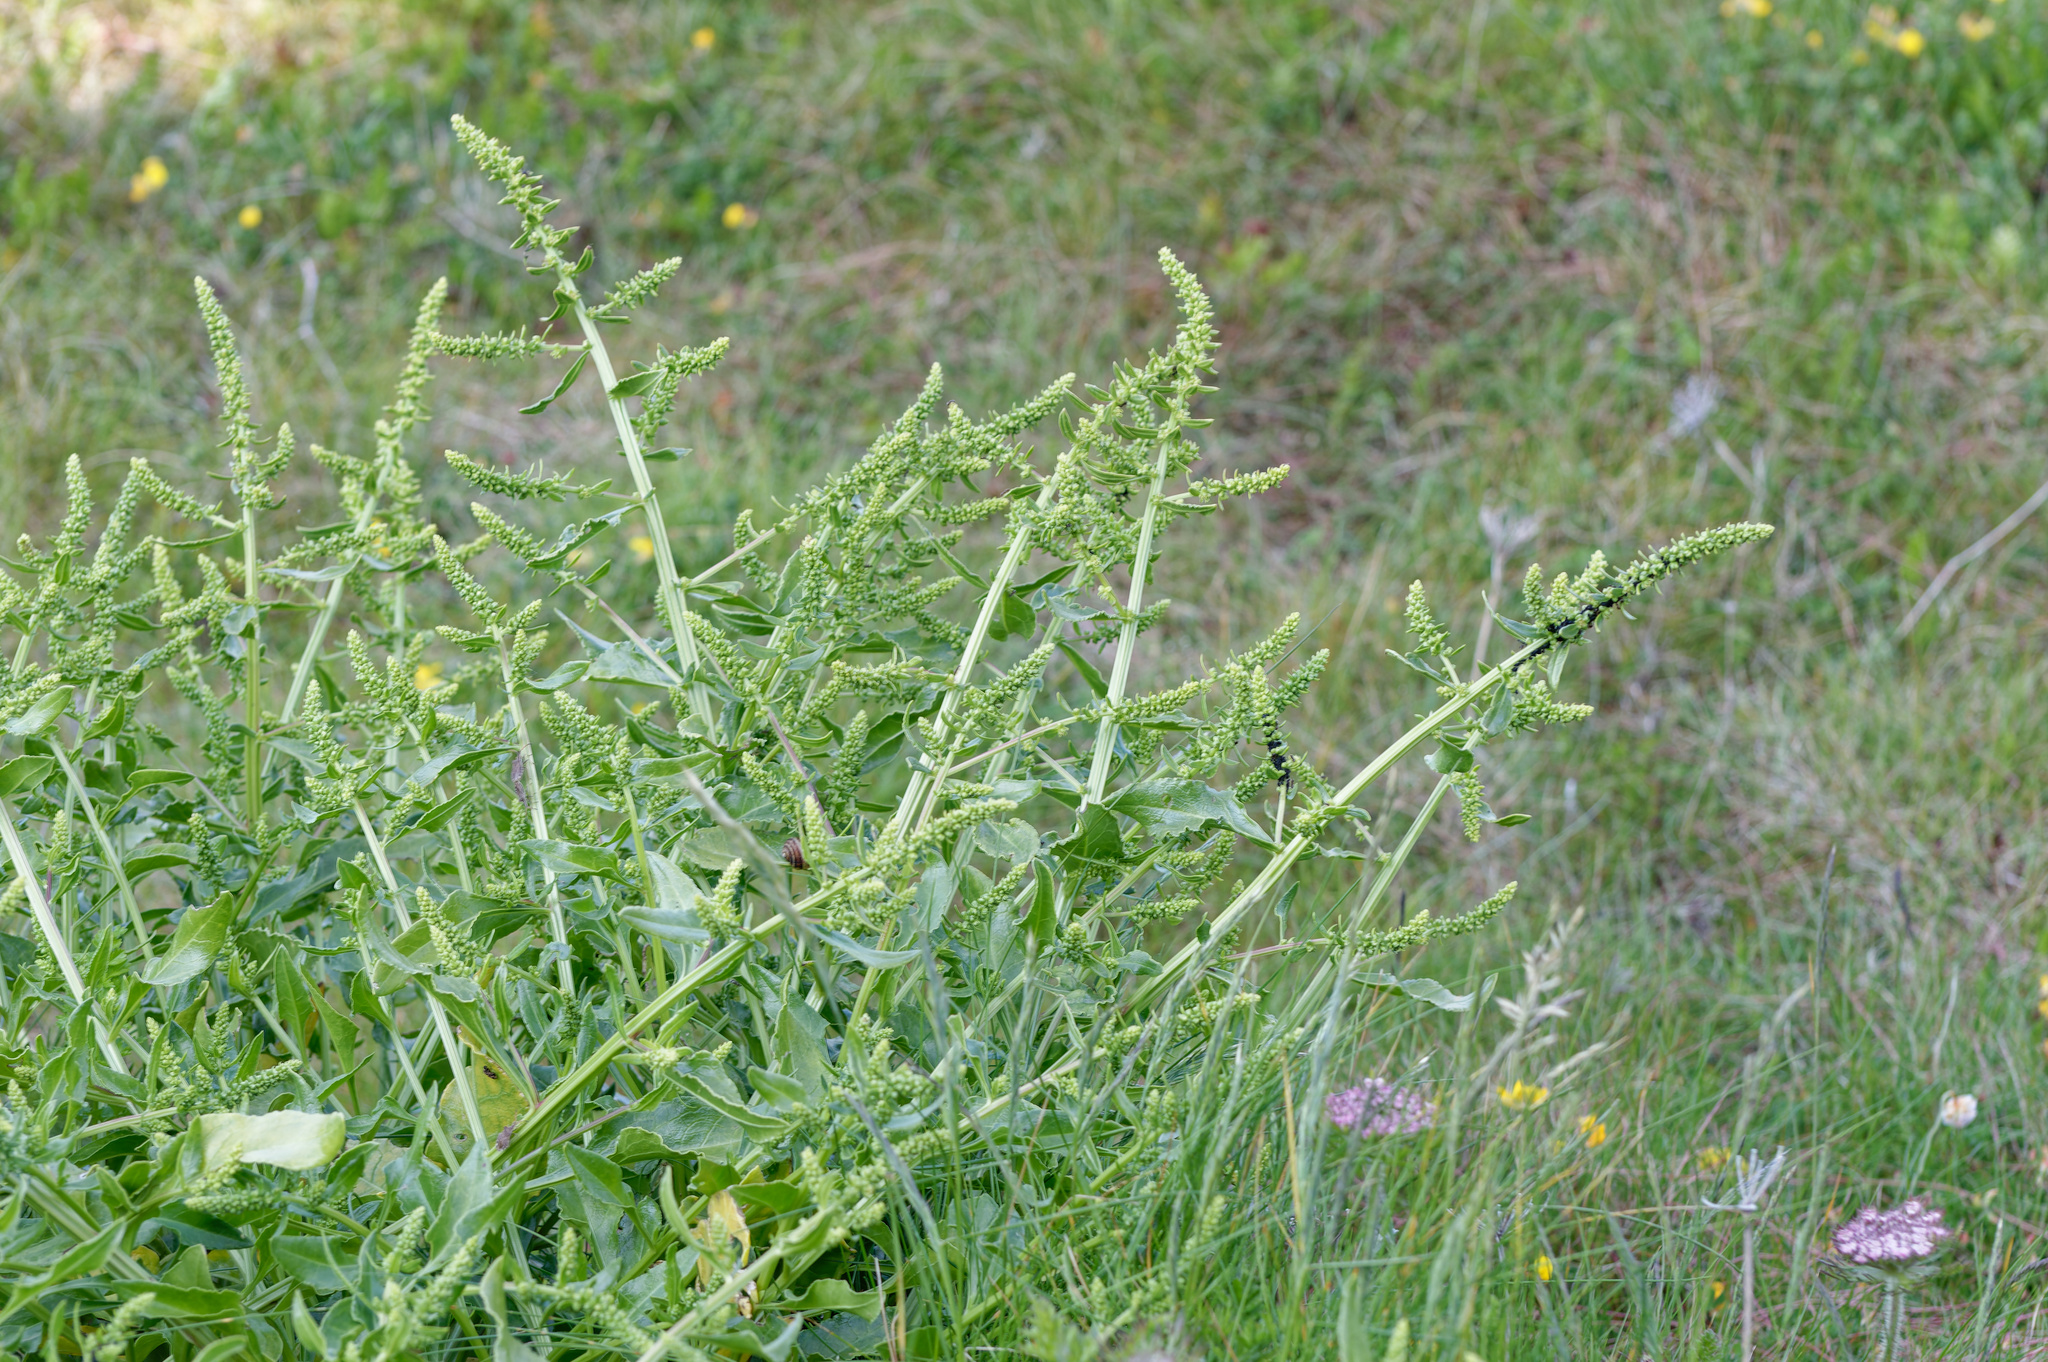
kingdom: Plantae
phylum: Tracheophyta
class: Magnoliopsida
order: Caryophyllales
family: Amaranthaceae
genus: Beta
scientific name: Beta vulgaris
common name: Beet
